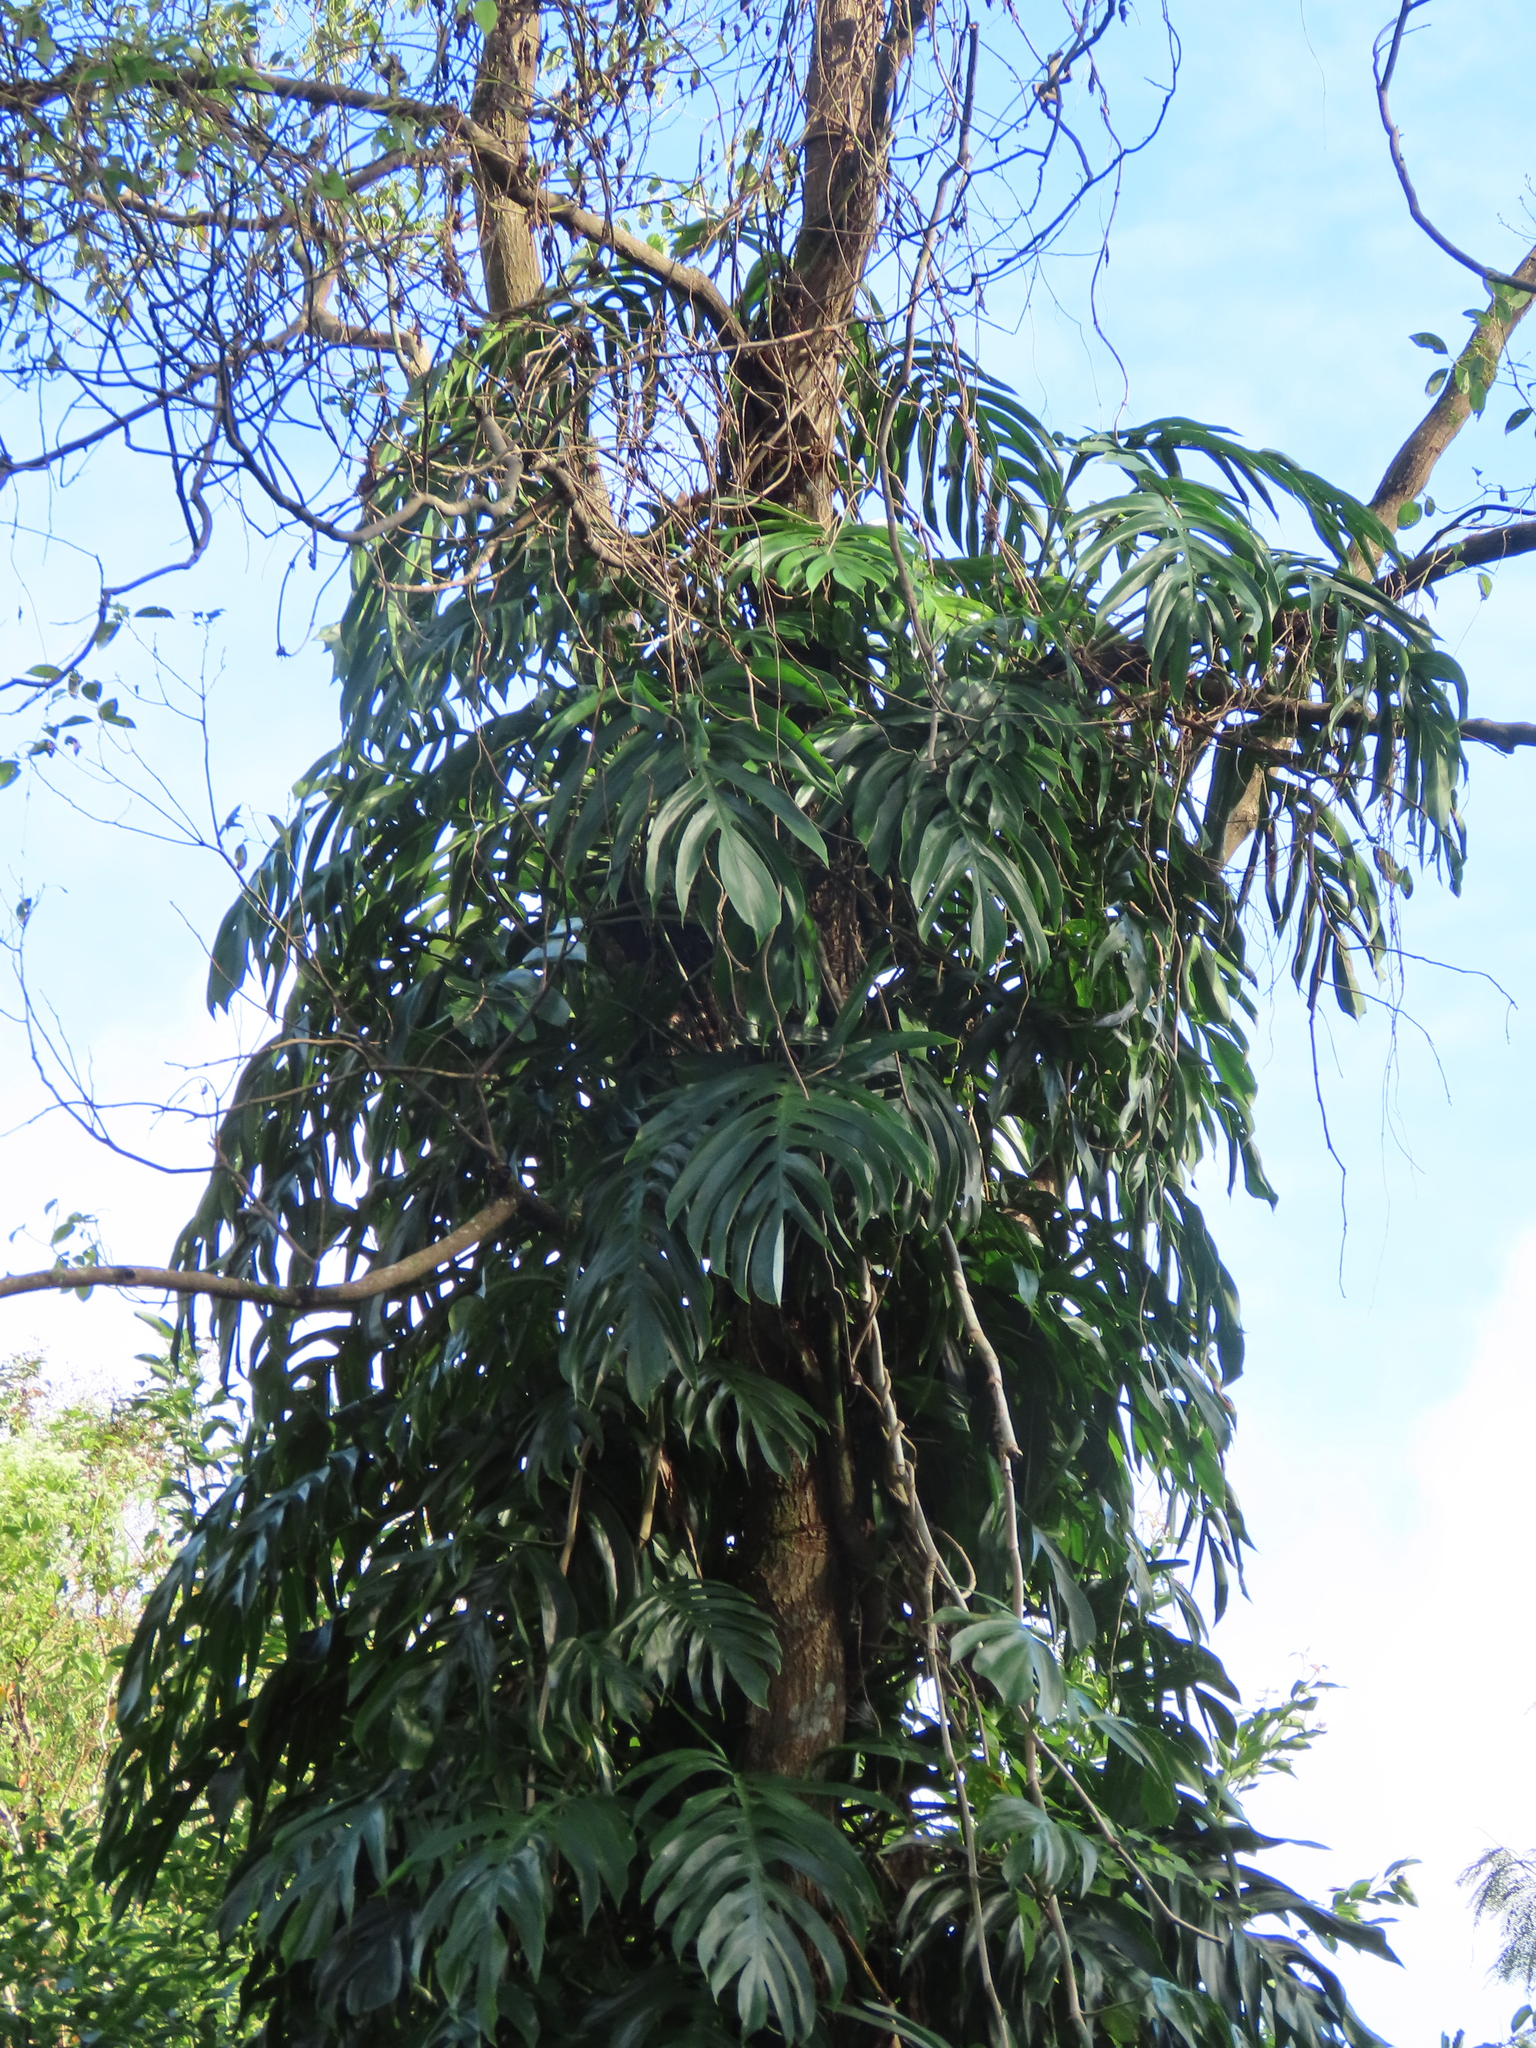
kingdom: Plantae
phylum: Tracheophyta
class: Liliopsida
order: Alismatales
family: Araceae
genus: Epipremnum
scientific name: Epipremnum pinnatum
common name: Centipede tongavine
